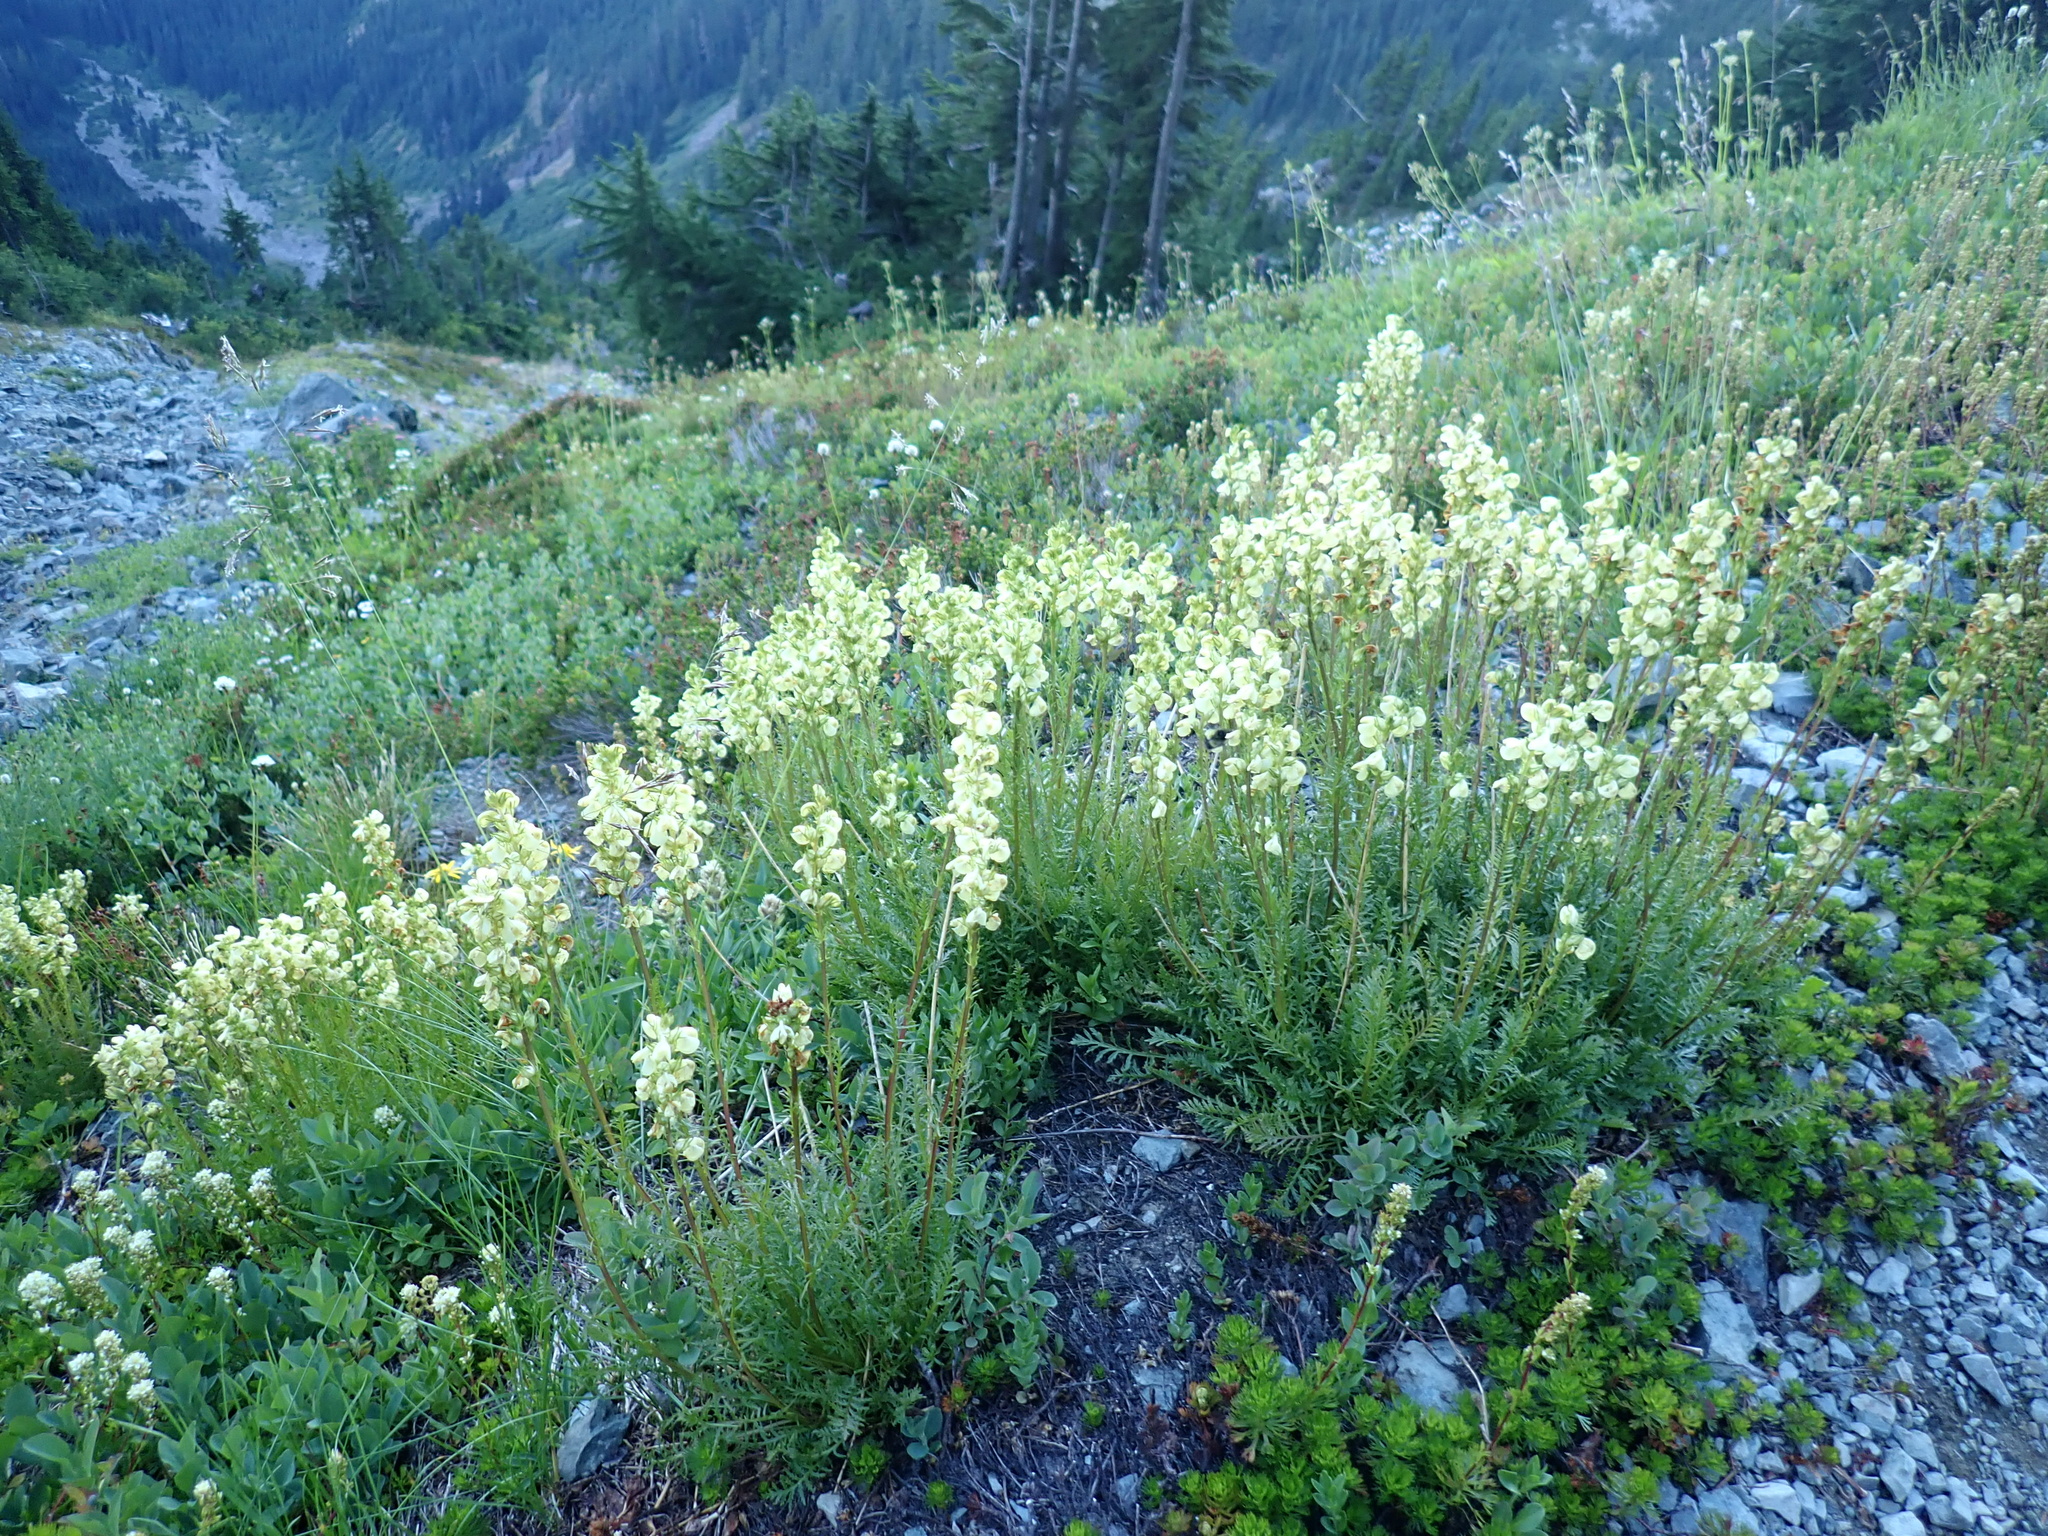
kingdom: Plantae
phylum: Tracheophyta
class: Magnoliopsida
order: Lamiales
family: Orobanchaceae
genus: Pedicularis
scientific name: Pedicularis contorta
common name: Coiled lousewort
